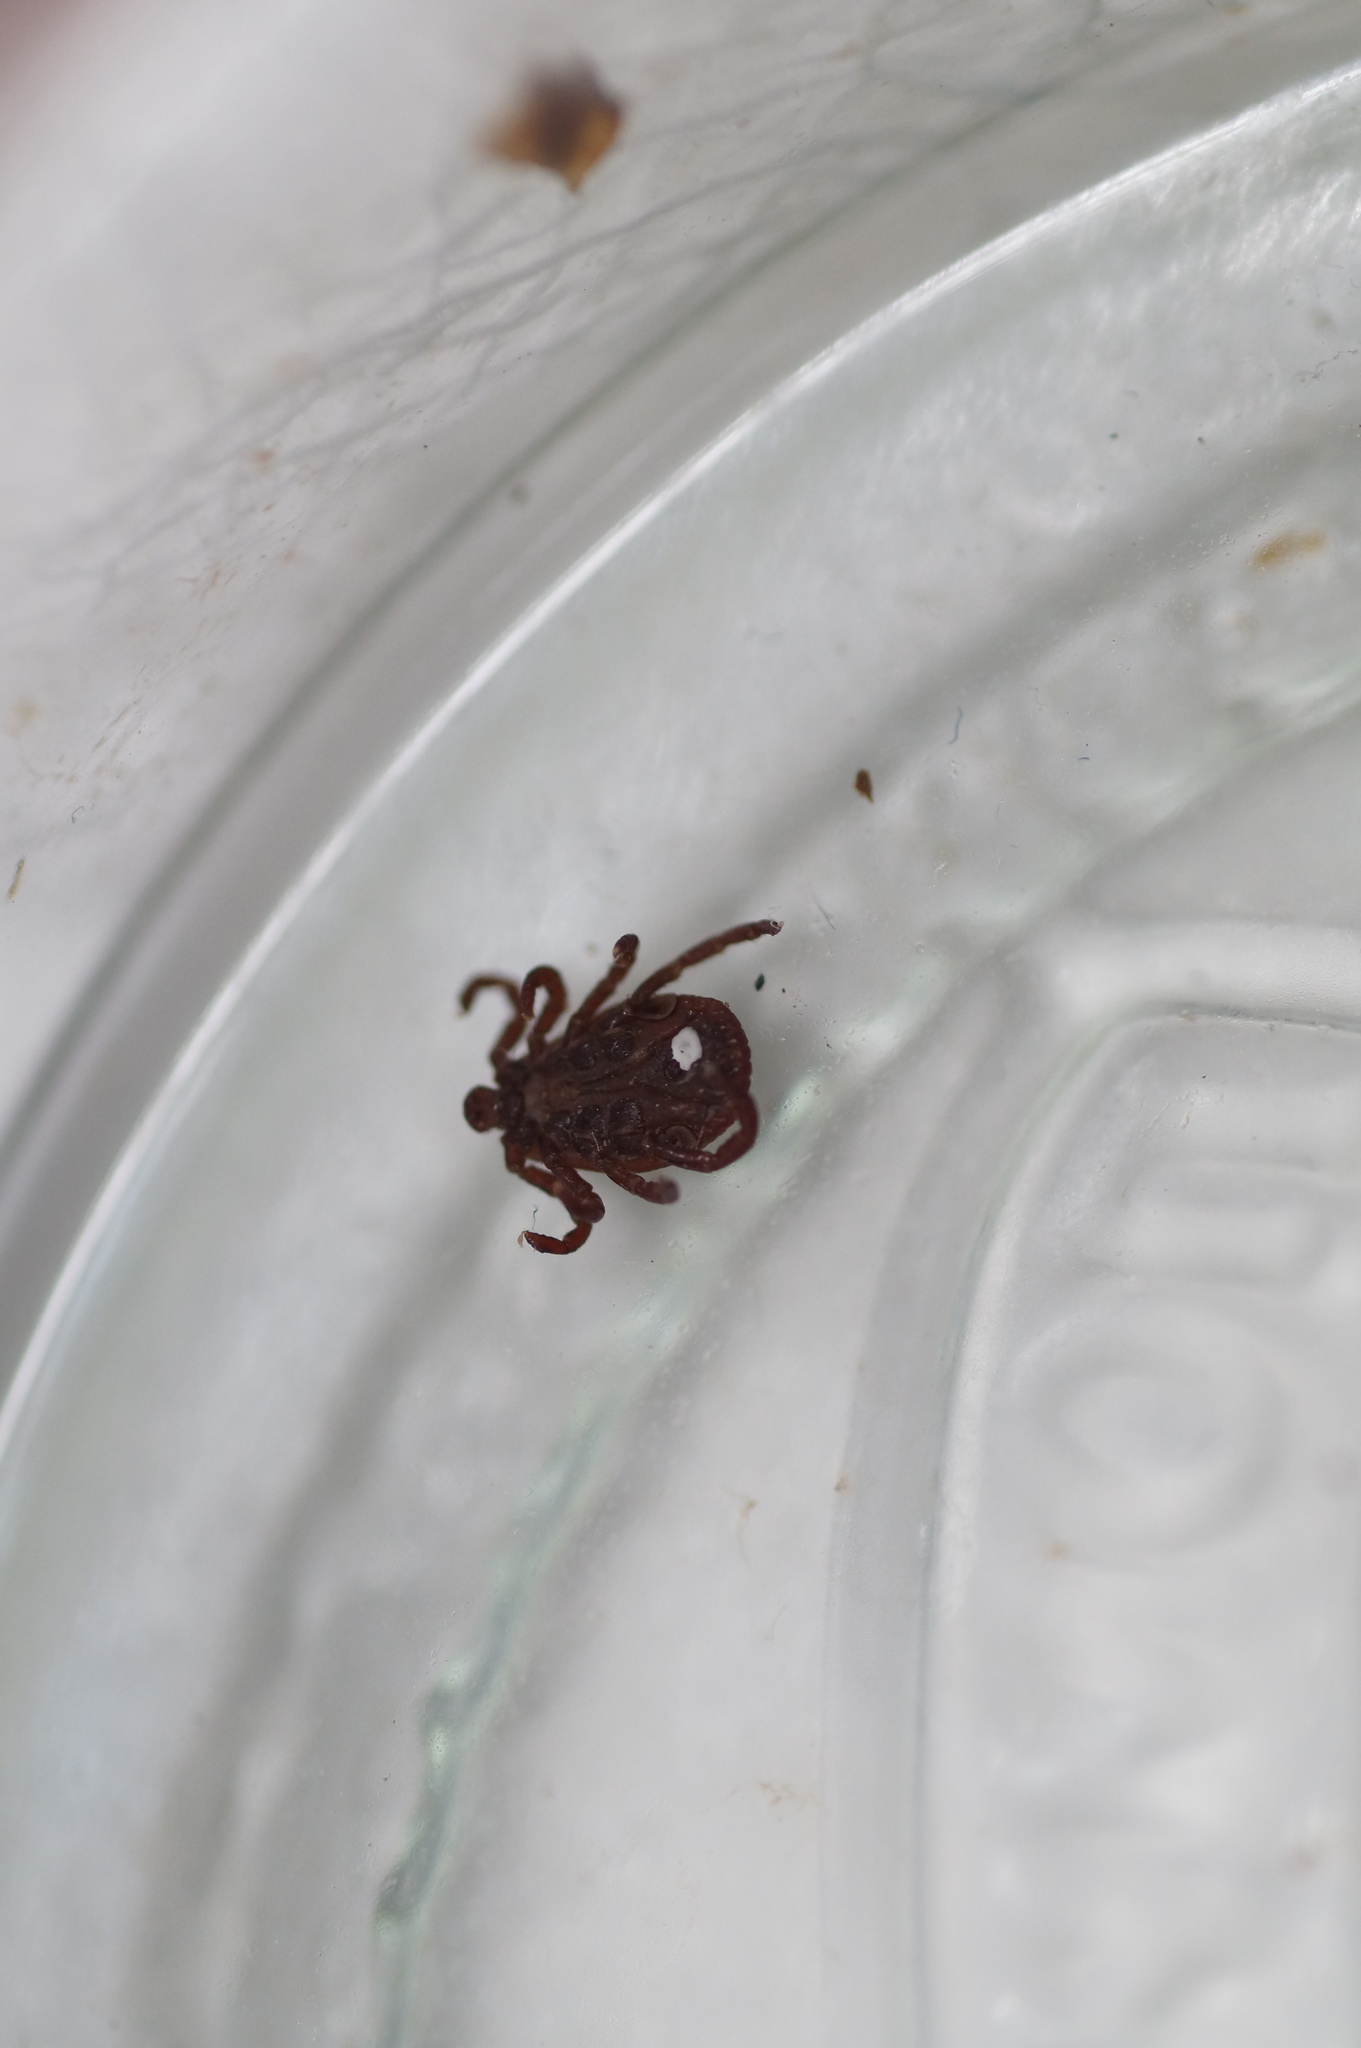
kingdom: Animalia
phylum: Arthropoda
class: Arachnida
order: Ixodida
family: Ixodidae
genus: Dermacentor
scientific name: Dermacentor reticulatus
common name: Ornate cow tick
